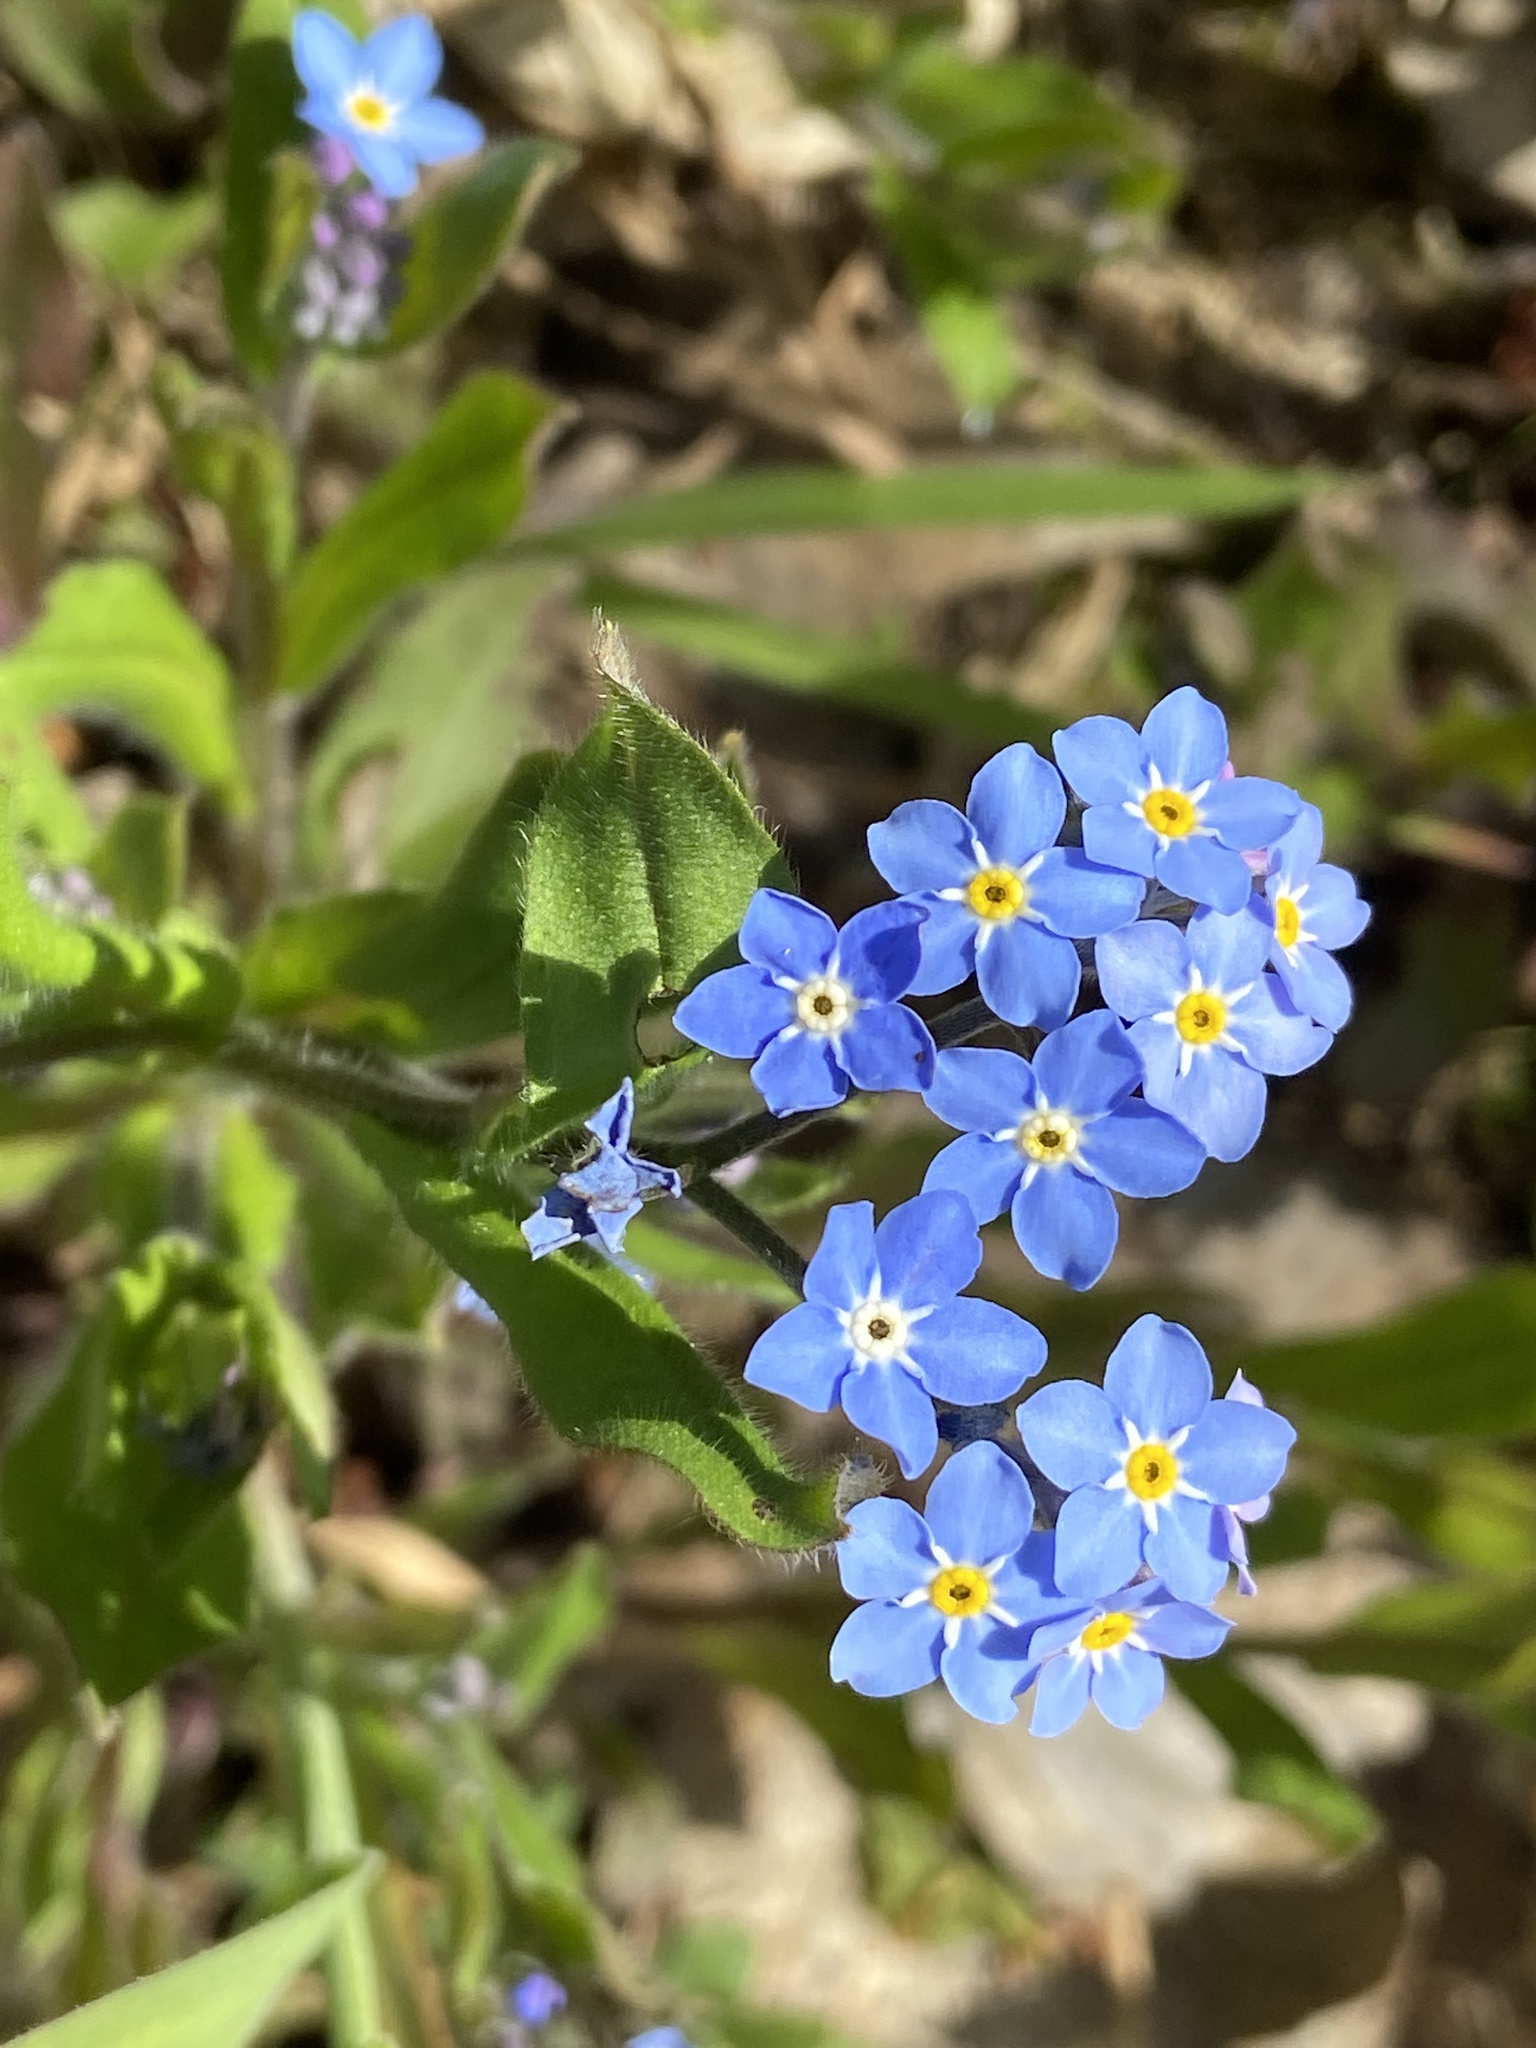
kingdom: Plantae
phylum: Tracheophyta
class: Magnoliopsida
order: Boraginales
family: Boraginaceae
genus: Myosotis
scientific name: Myosotis sylvatica
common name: Wood forget-me-not
